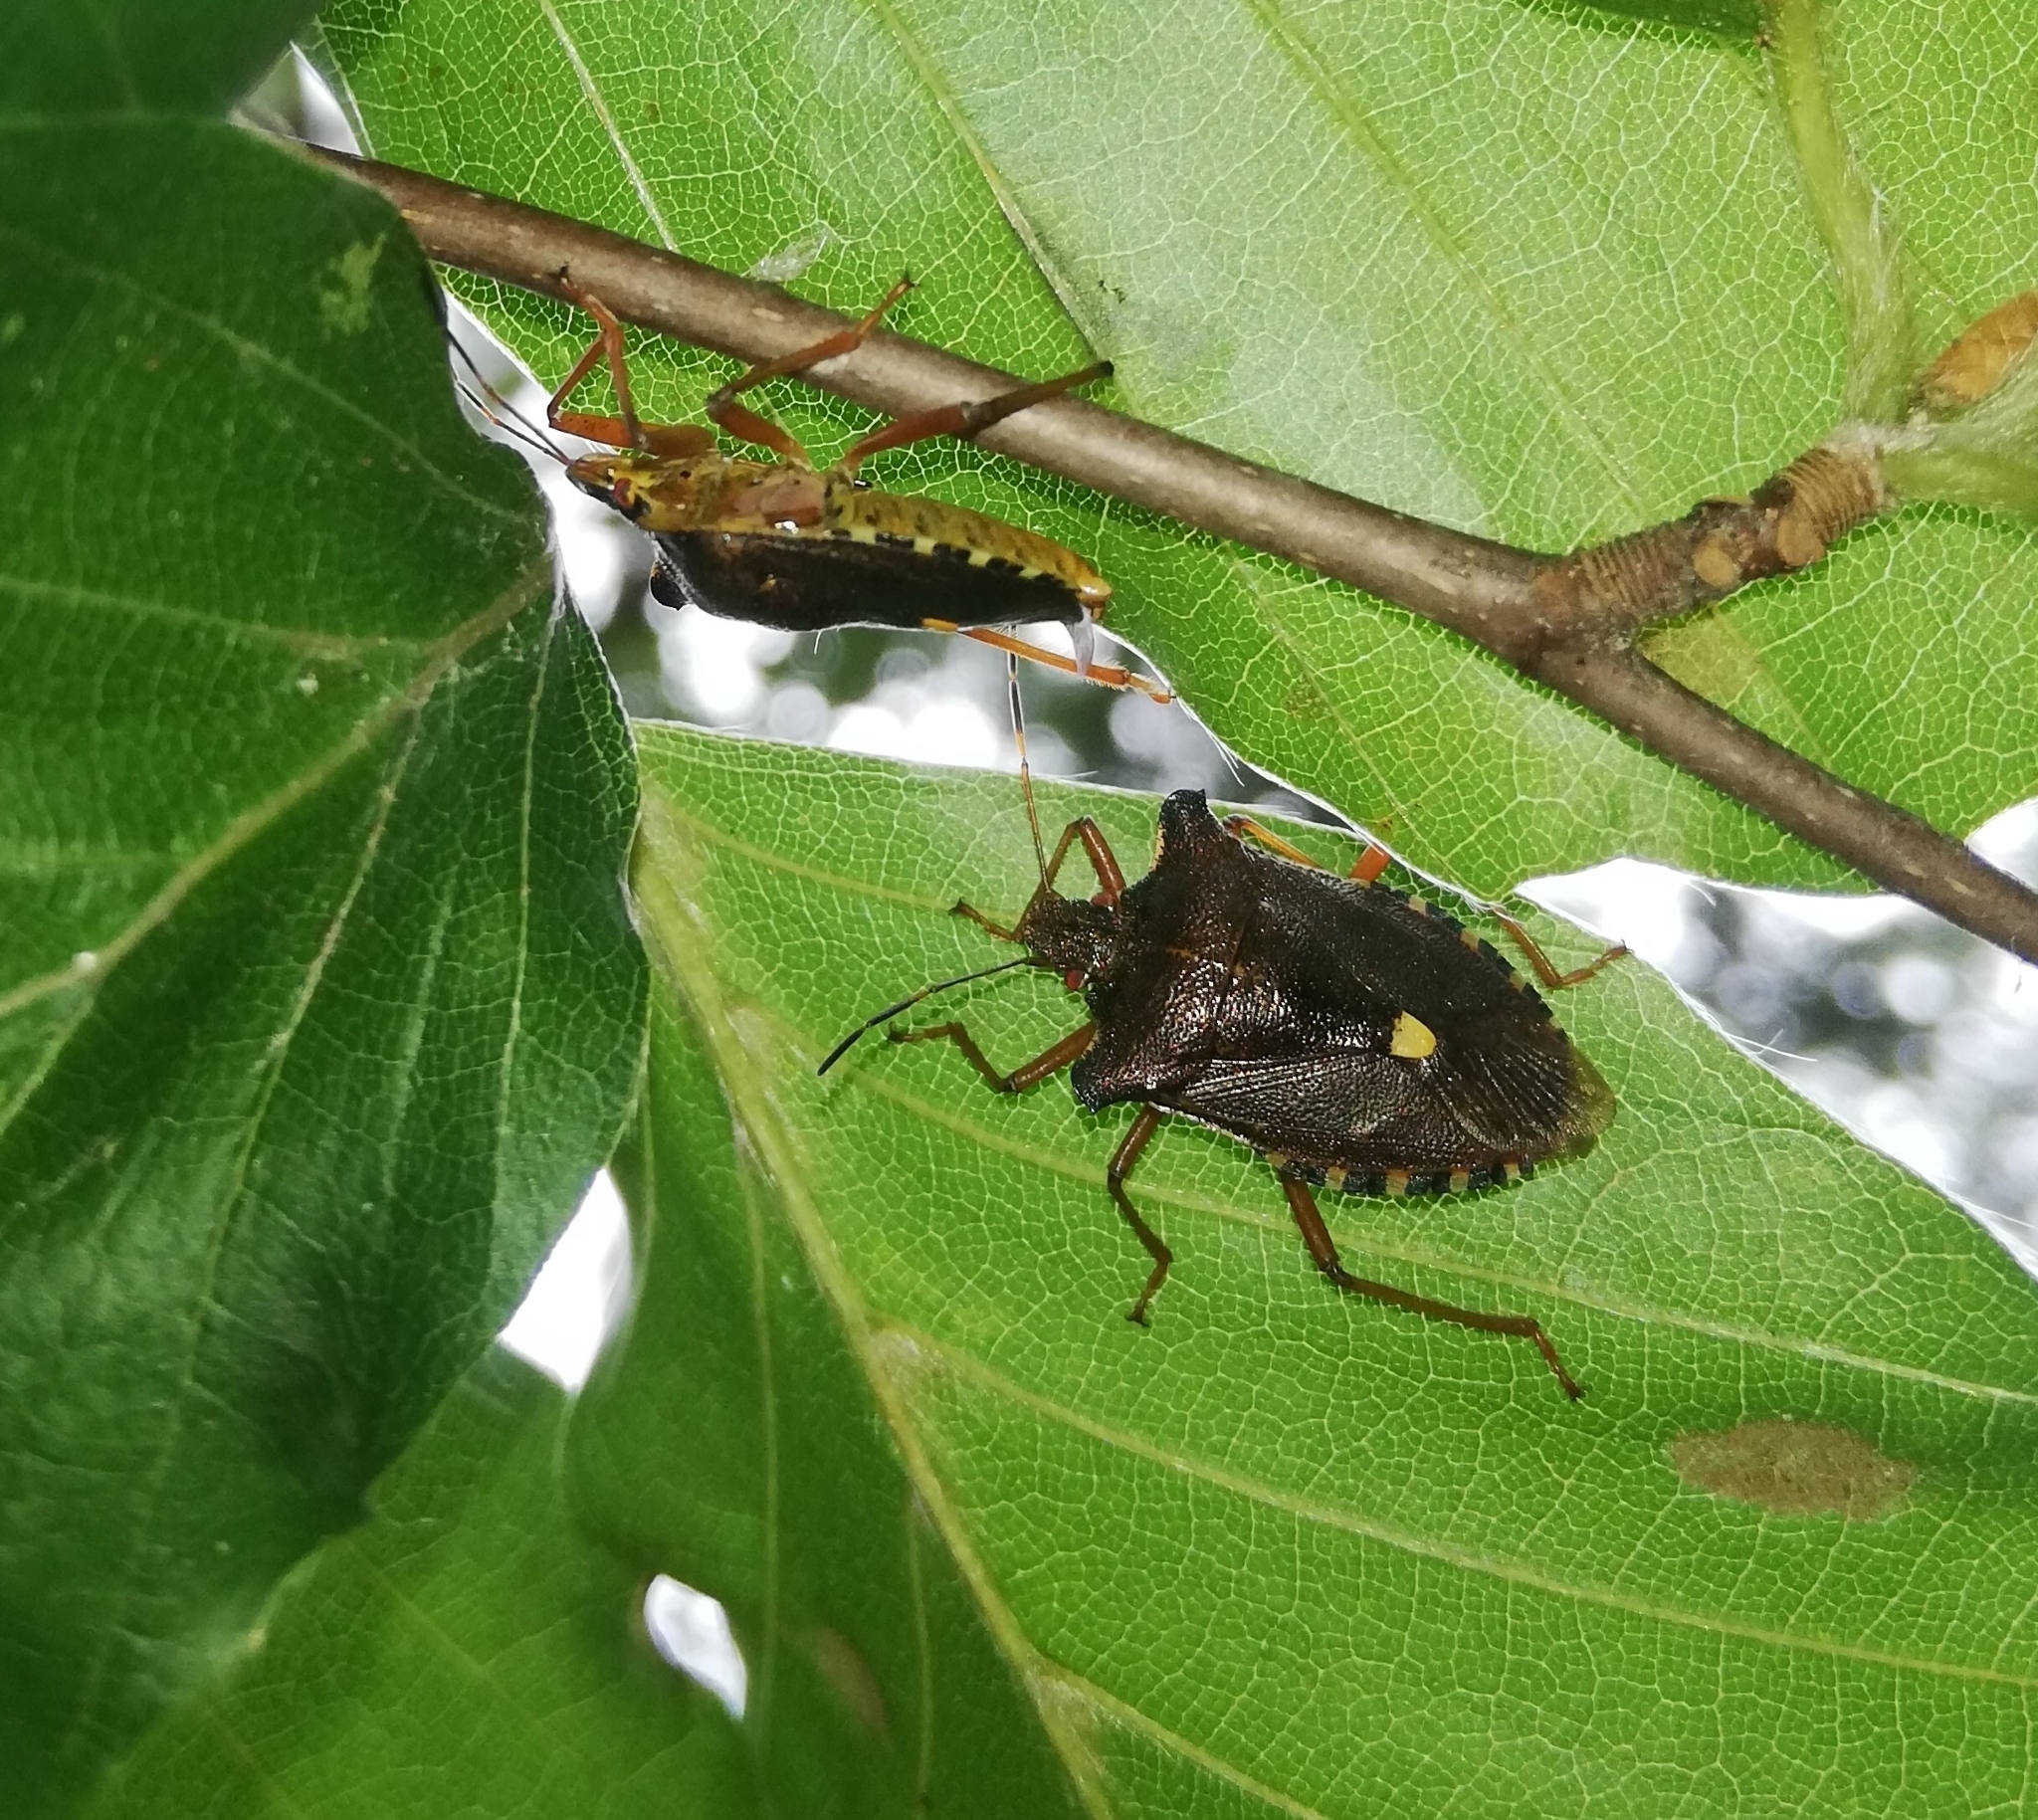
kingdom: Animalia
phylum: Arthropoda
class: Insecta
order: Hemiptera
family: Pentatomidae
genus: Pentatoma
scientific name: Pentatoma rufipes
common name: Forest bug
